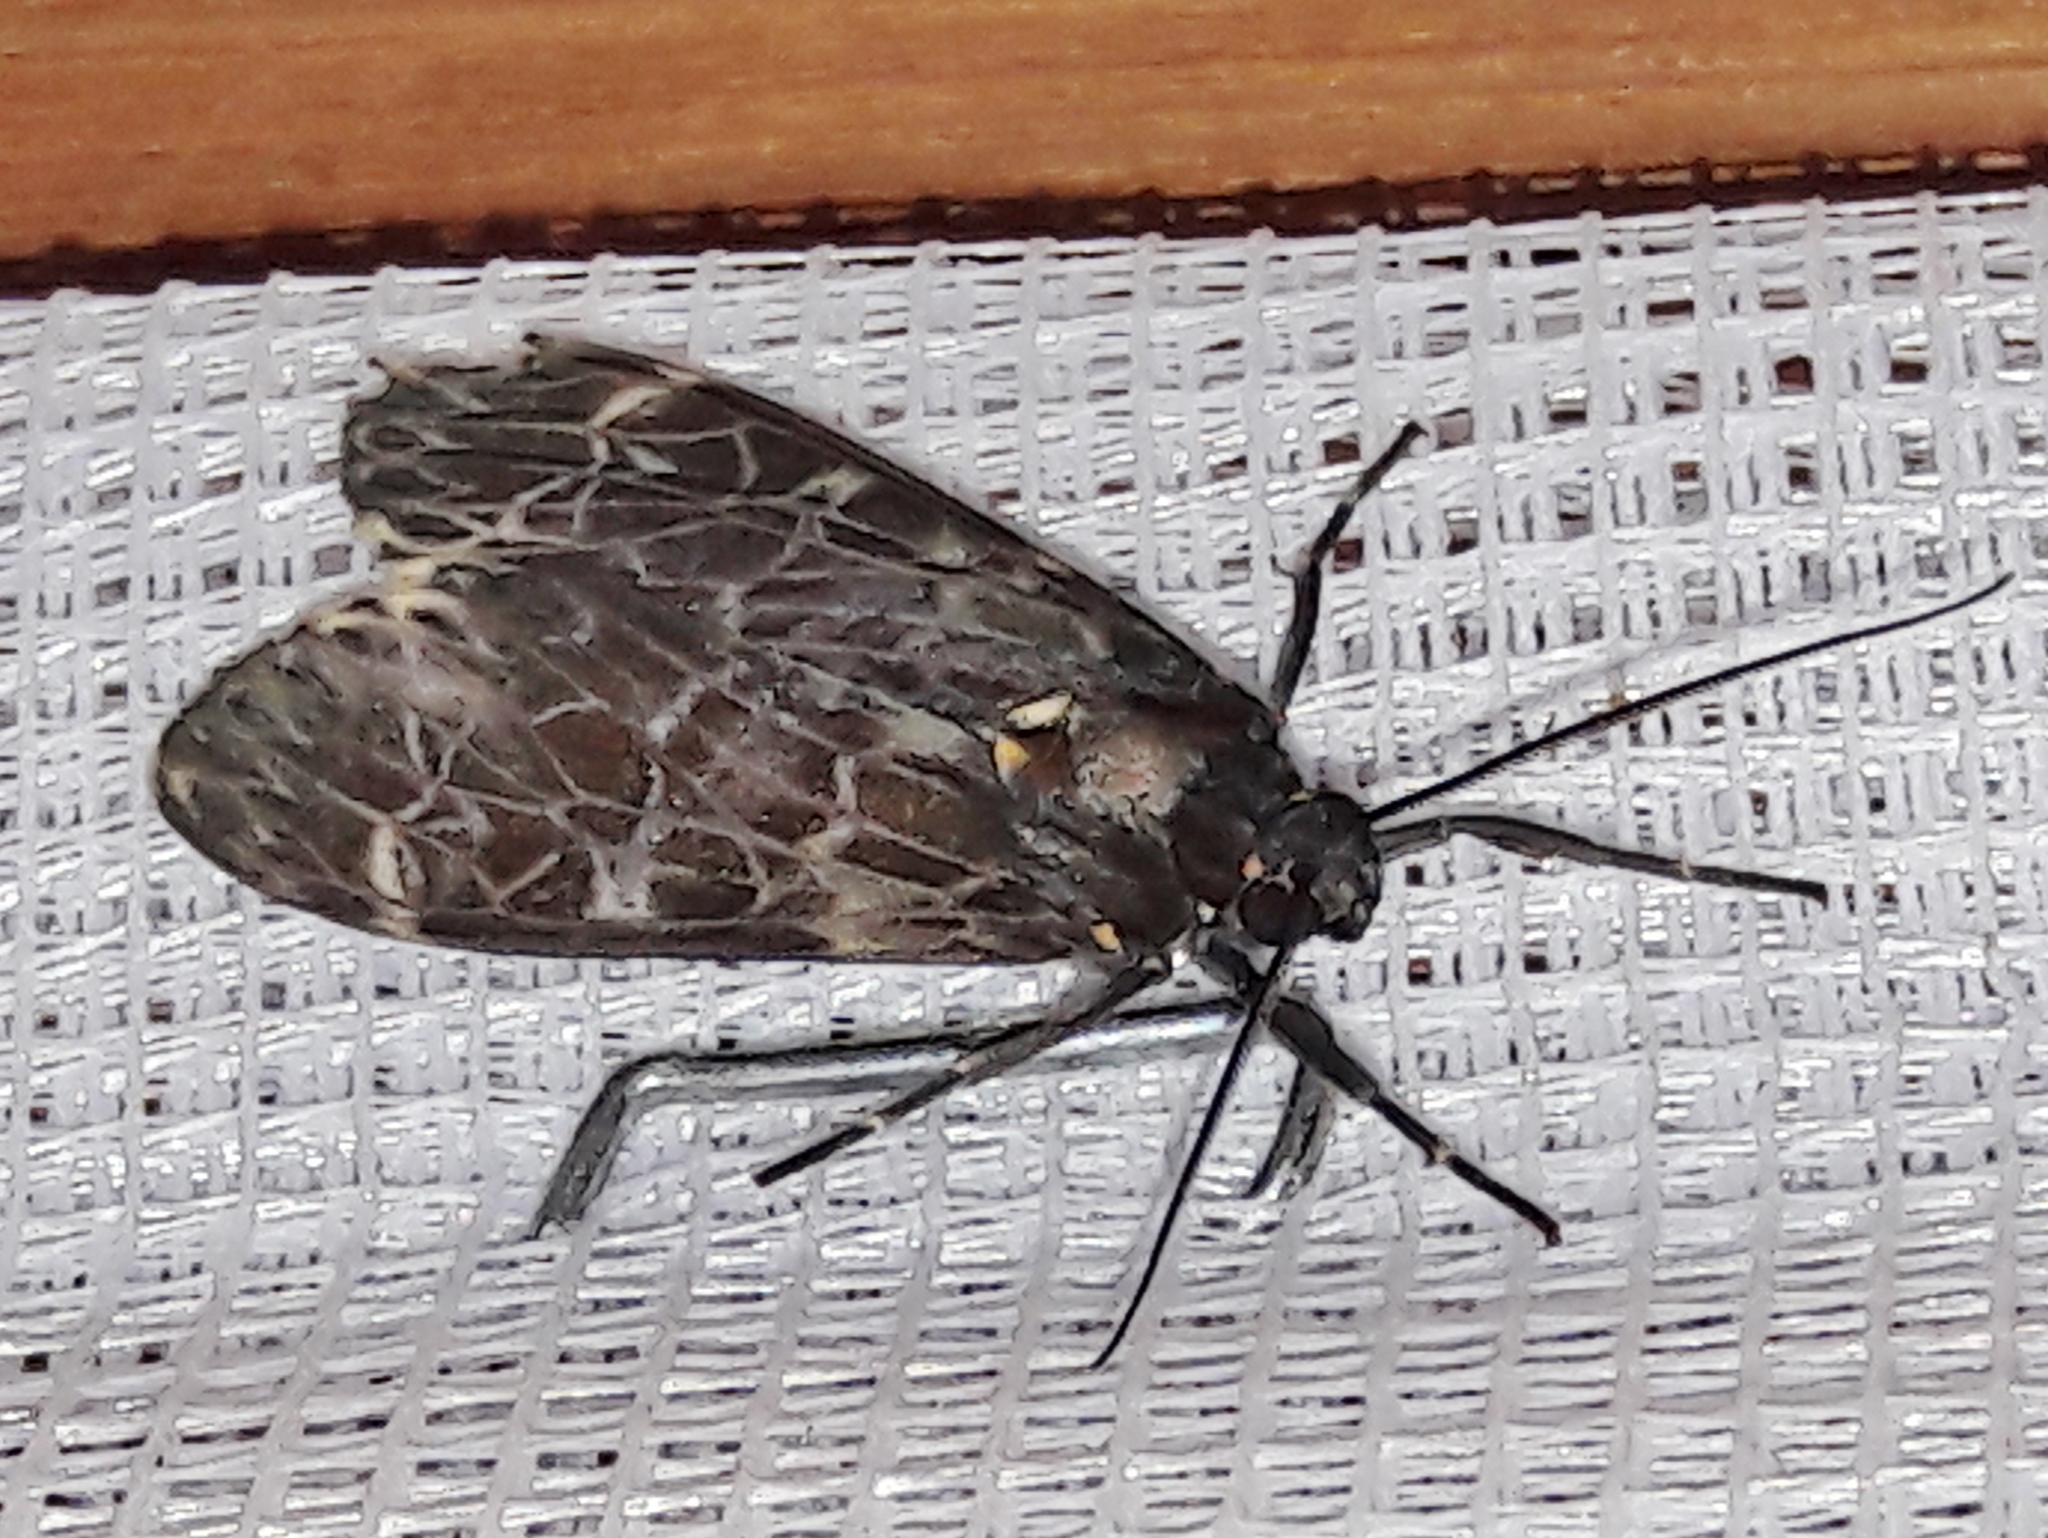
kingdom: Animalia
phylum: Arthropoda
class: Insecta
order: Lepidoptera
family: Erebidae
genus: Eucereon
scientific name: Eucereon sylvius
